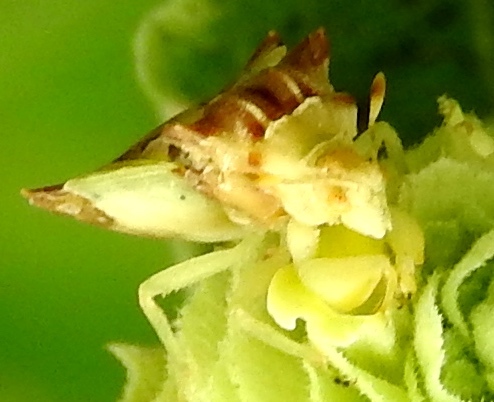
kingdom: Animalia
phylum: Arthropoda
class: Insecta
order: Hemiptera
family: Reduviidae
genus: Phymata
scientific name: Phymata
